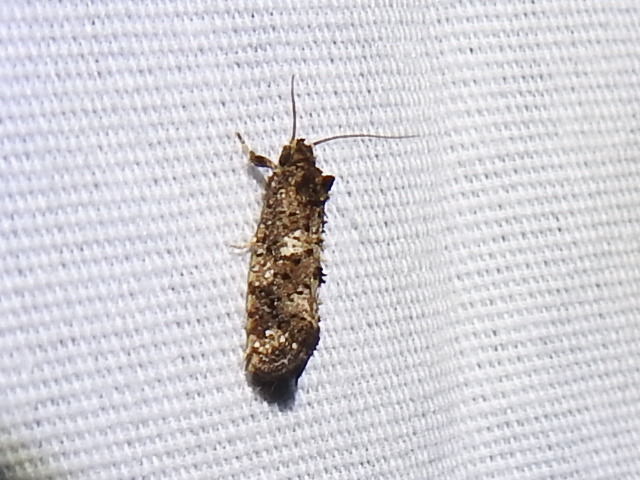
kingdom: Animalia
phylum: Arthropoda
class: Insecta
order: Lepidoptera
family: Tineidae
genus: Acrolophus
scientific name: Acrolophus cressoni
